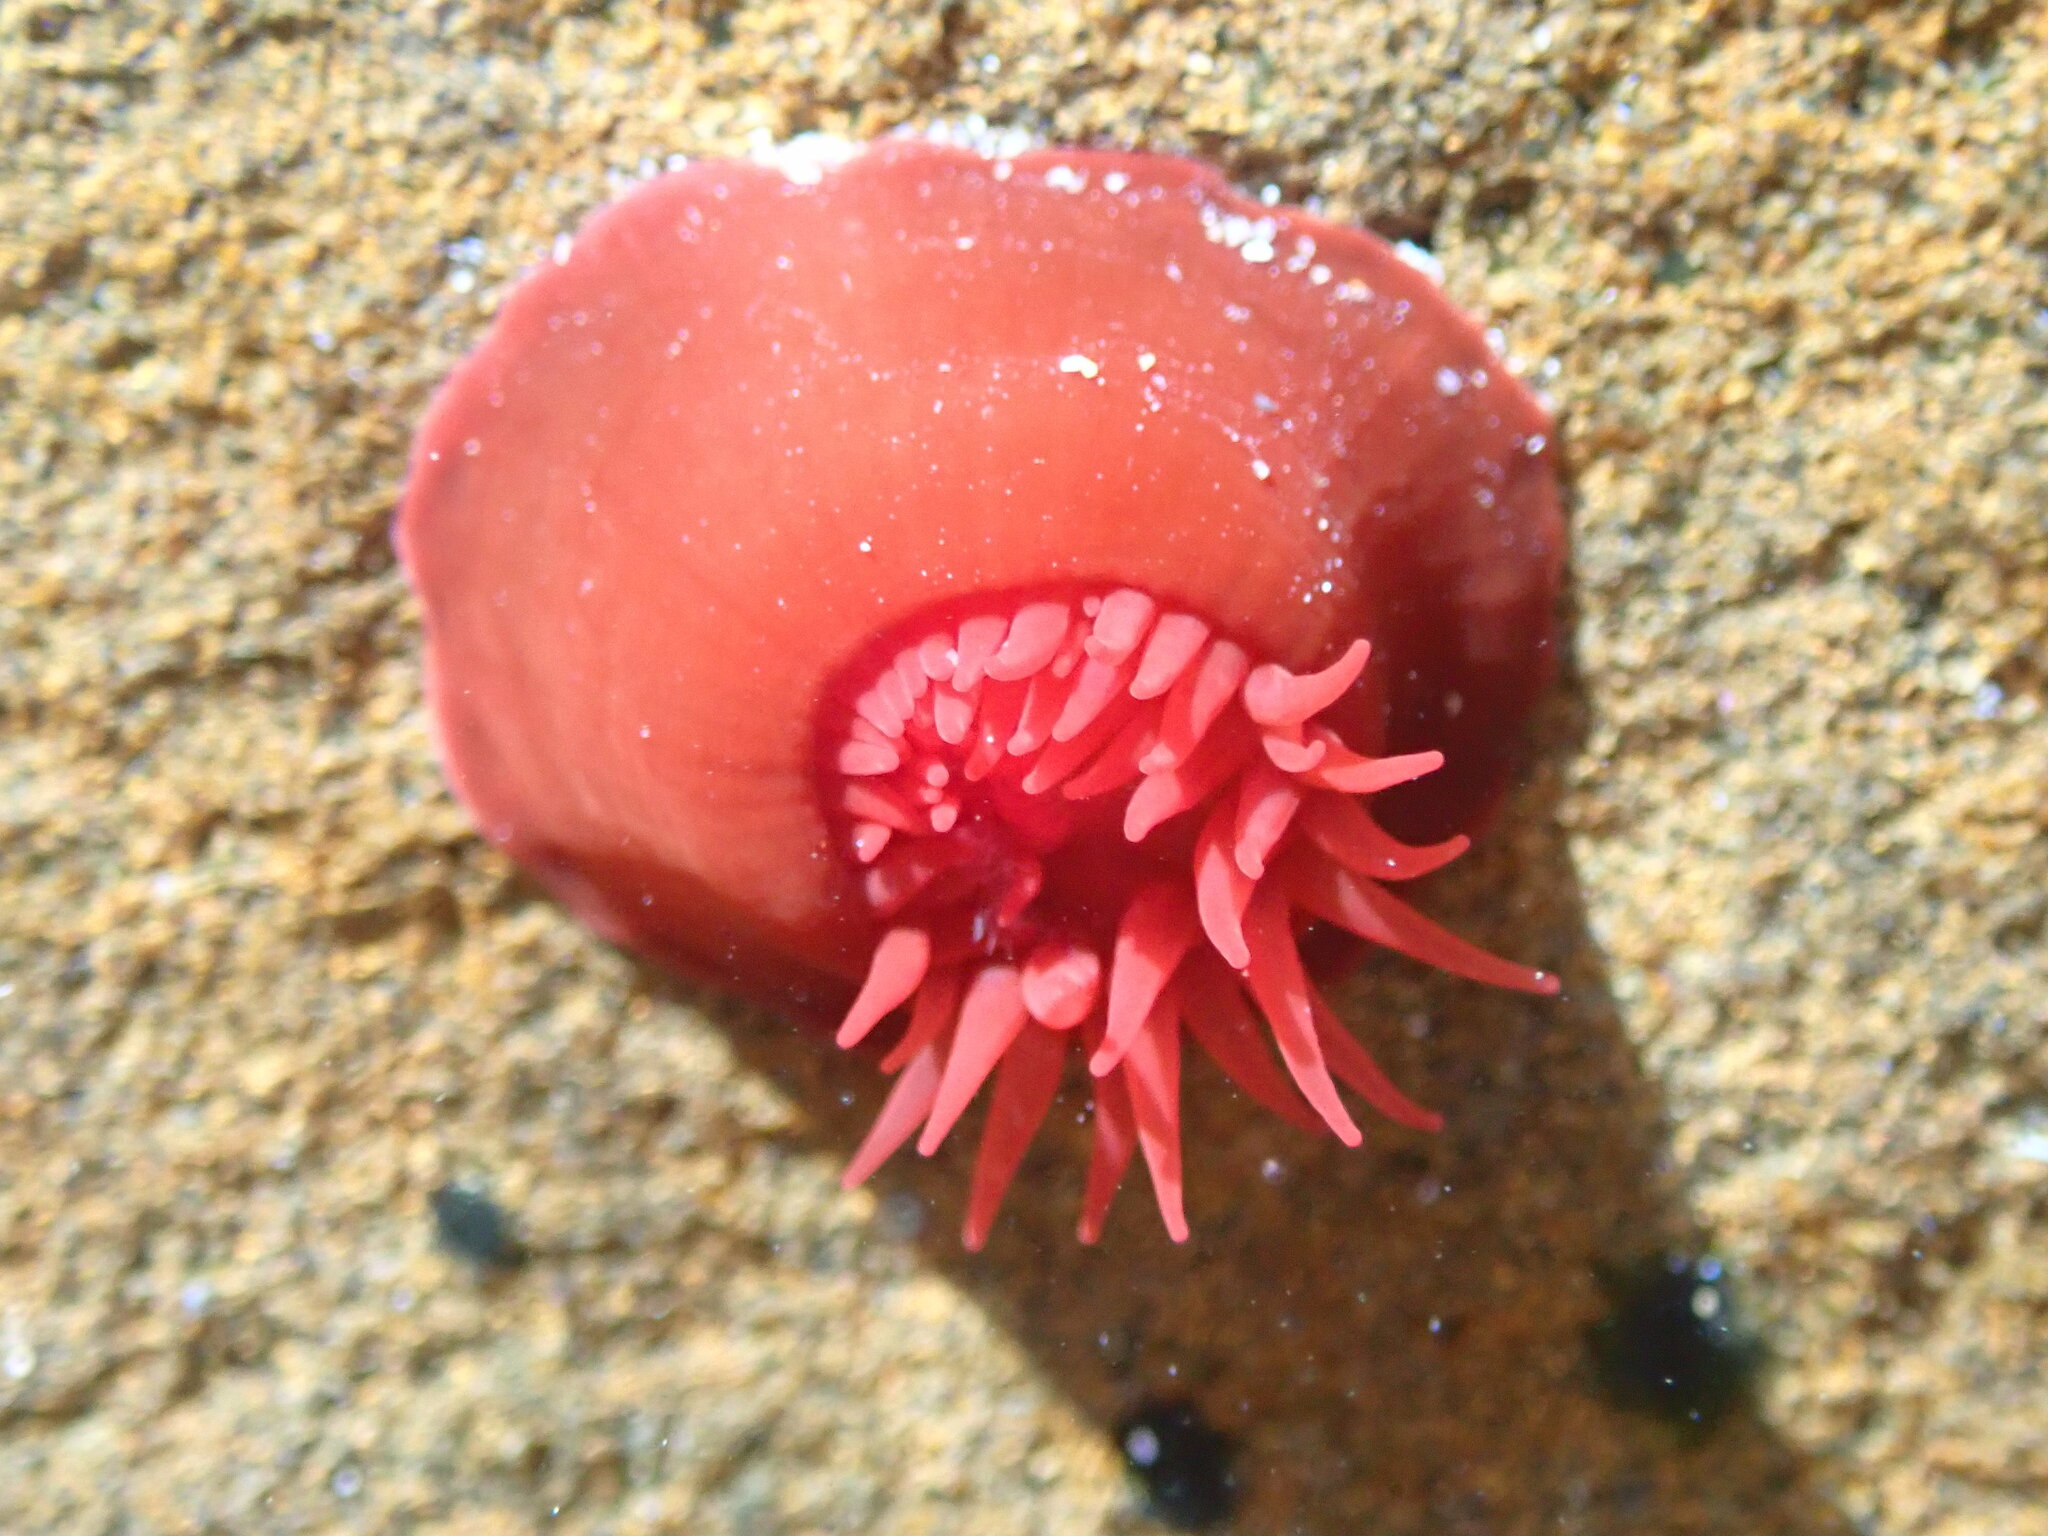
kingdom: Animalia
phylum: Cnidaria
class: Anthozoa
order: Actiniaria
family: Actiniidae
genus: Actinia
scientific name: Actinia tenebrosa
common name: Waratah anemone
